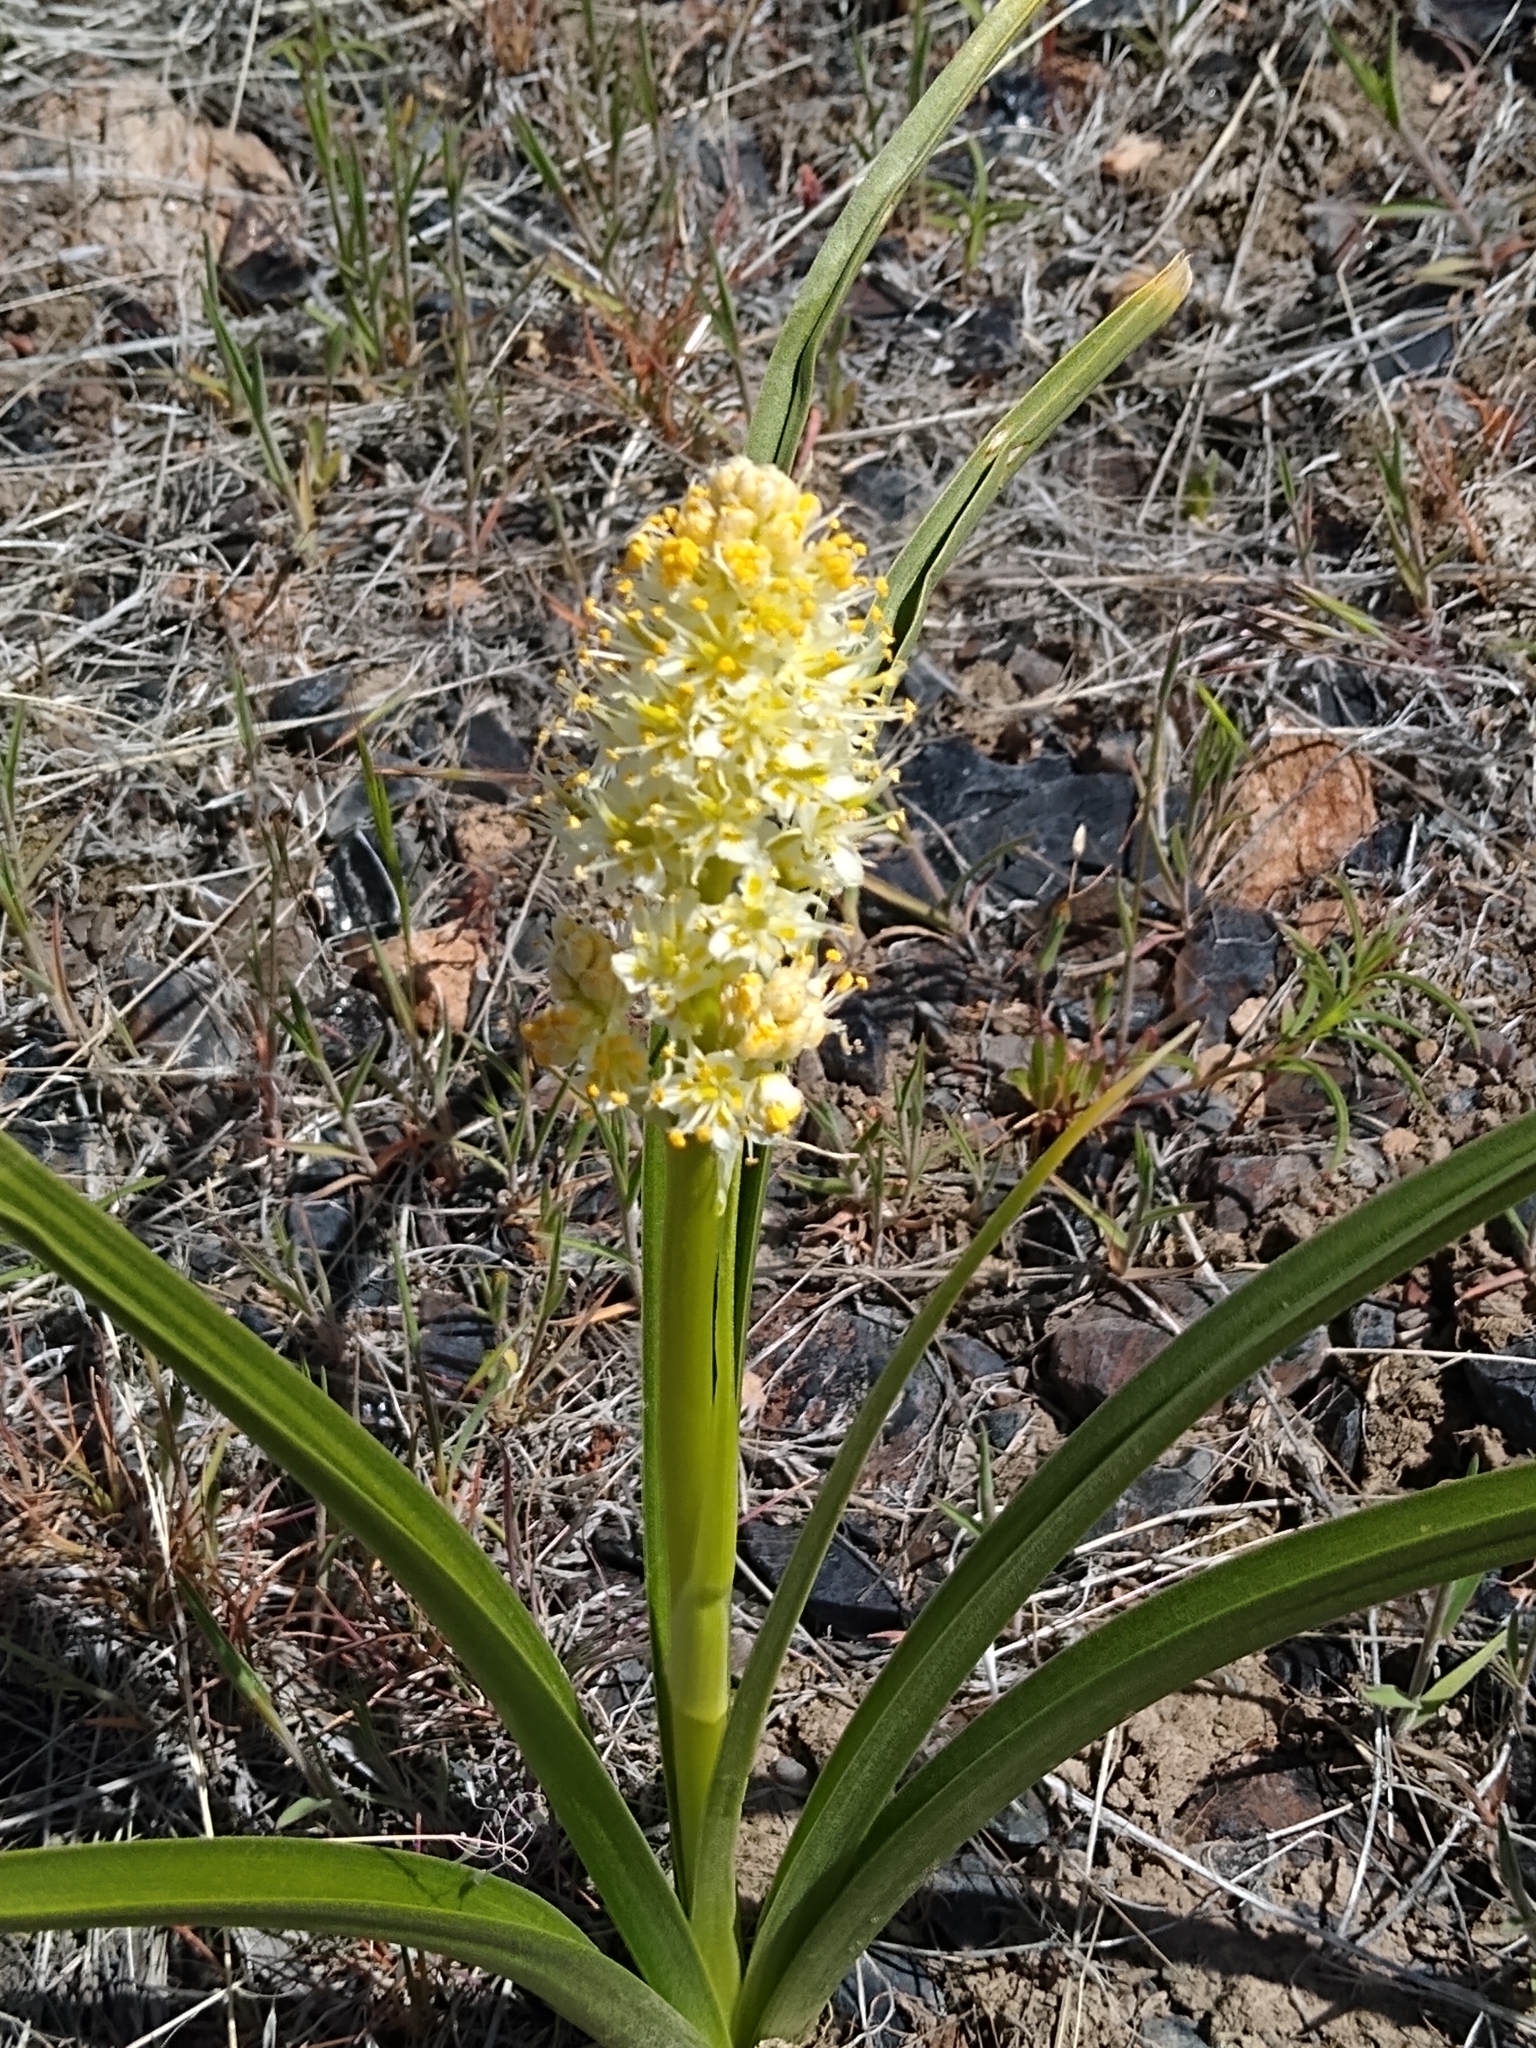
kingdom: Plantae
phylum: Tracheophyta
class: Liliopsida
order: Liliales
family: Melanthiaceae
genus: Toxicoscordion
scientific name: Toxicoscordion paniculatum
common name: Foothill death camas
